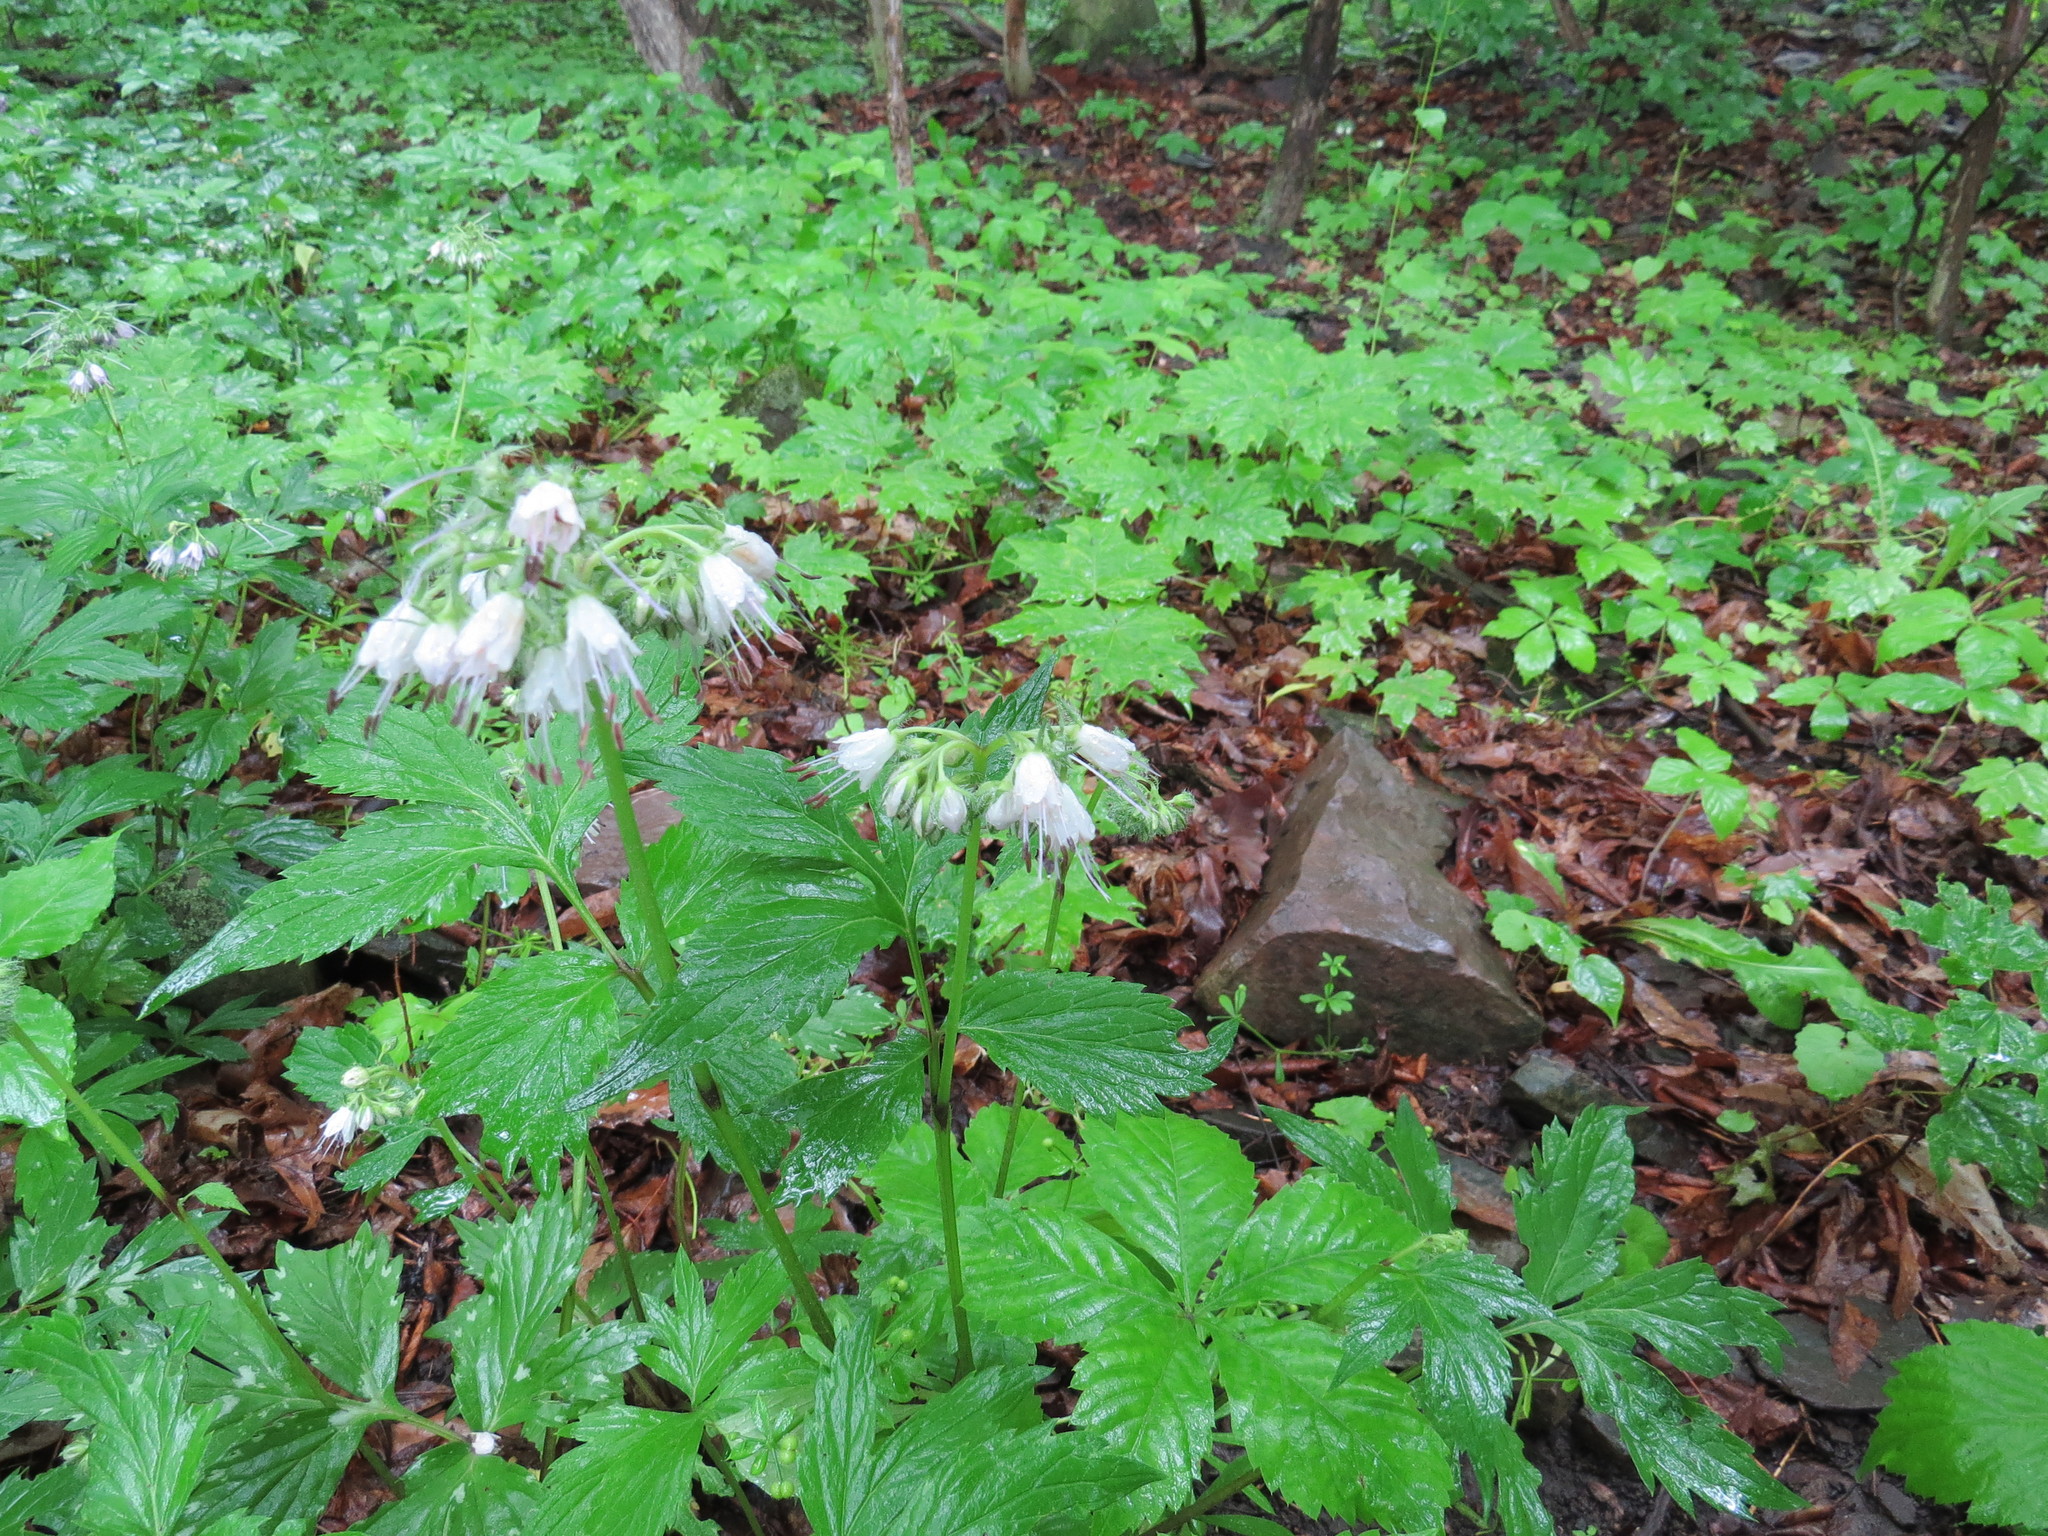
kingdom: Plantae
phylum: Tracheophyta
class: Magnoliopsida
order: Boraginales
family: Hydrophyllaceae
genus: Hydrophyllum
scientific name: Hydrophyllum virginianum
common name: Virginia waterleaf
